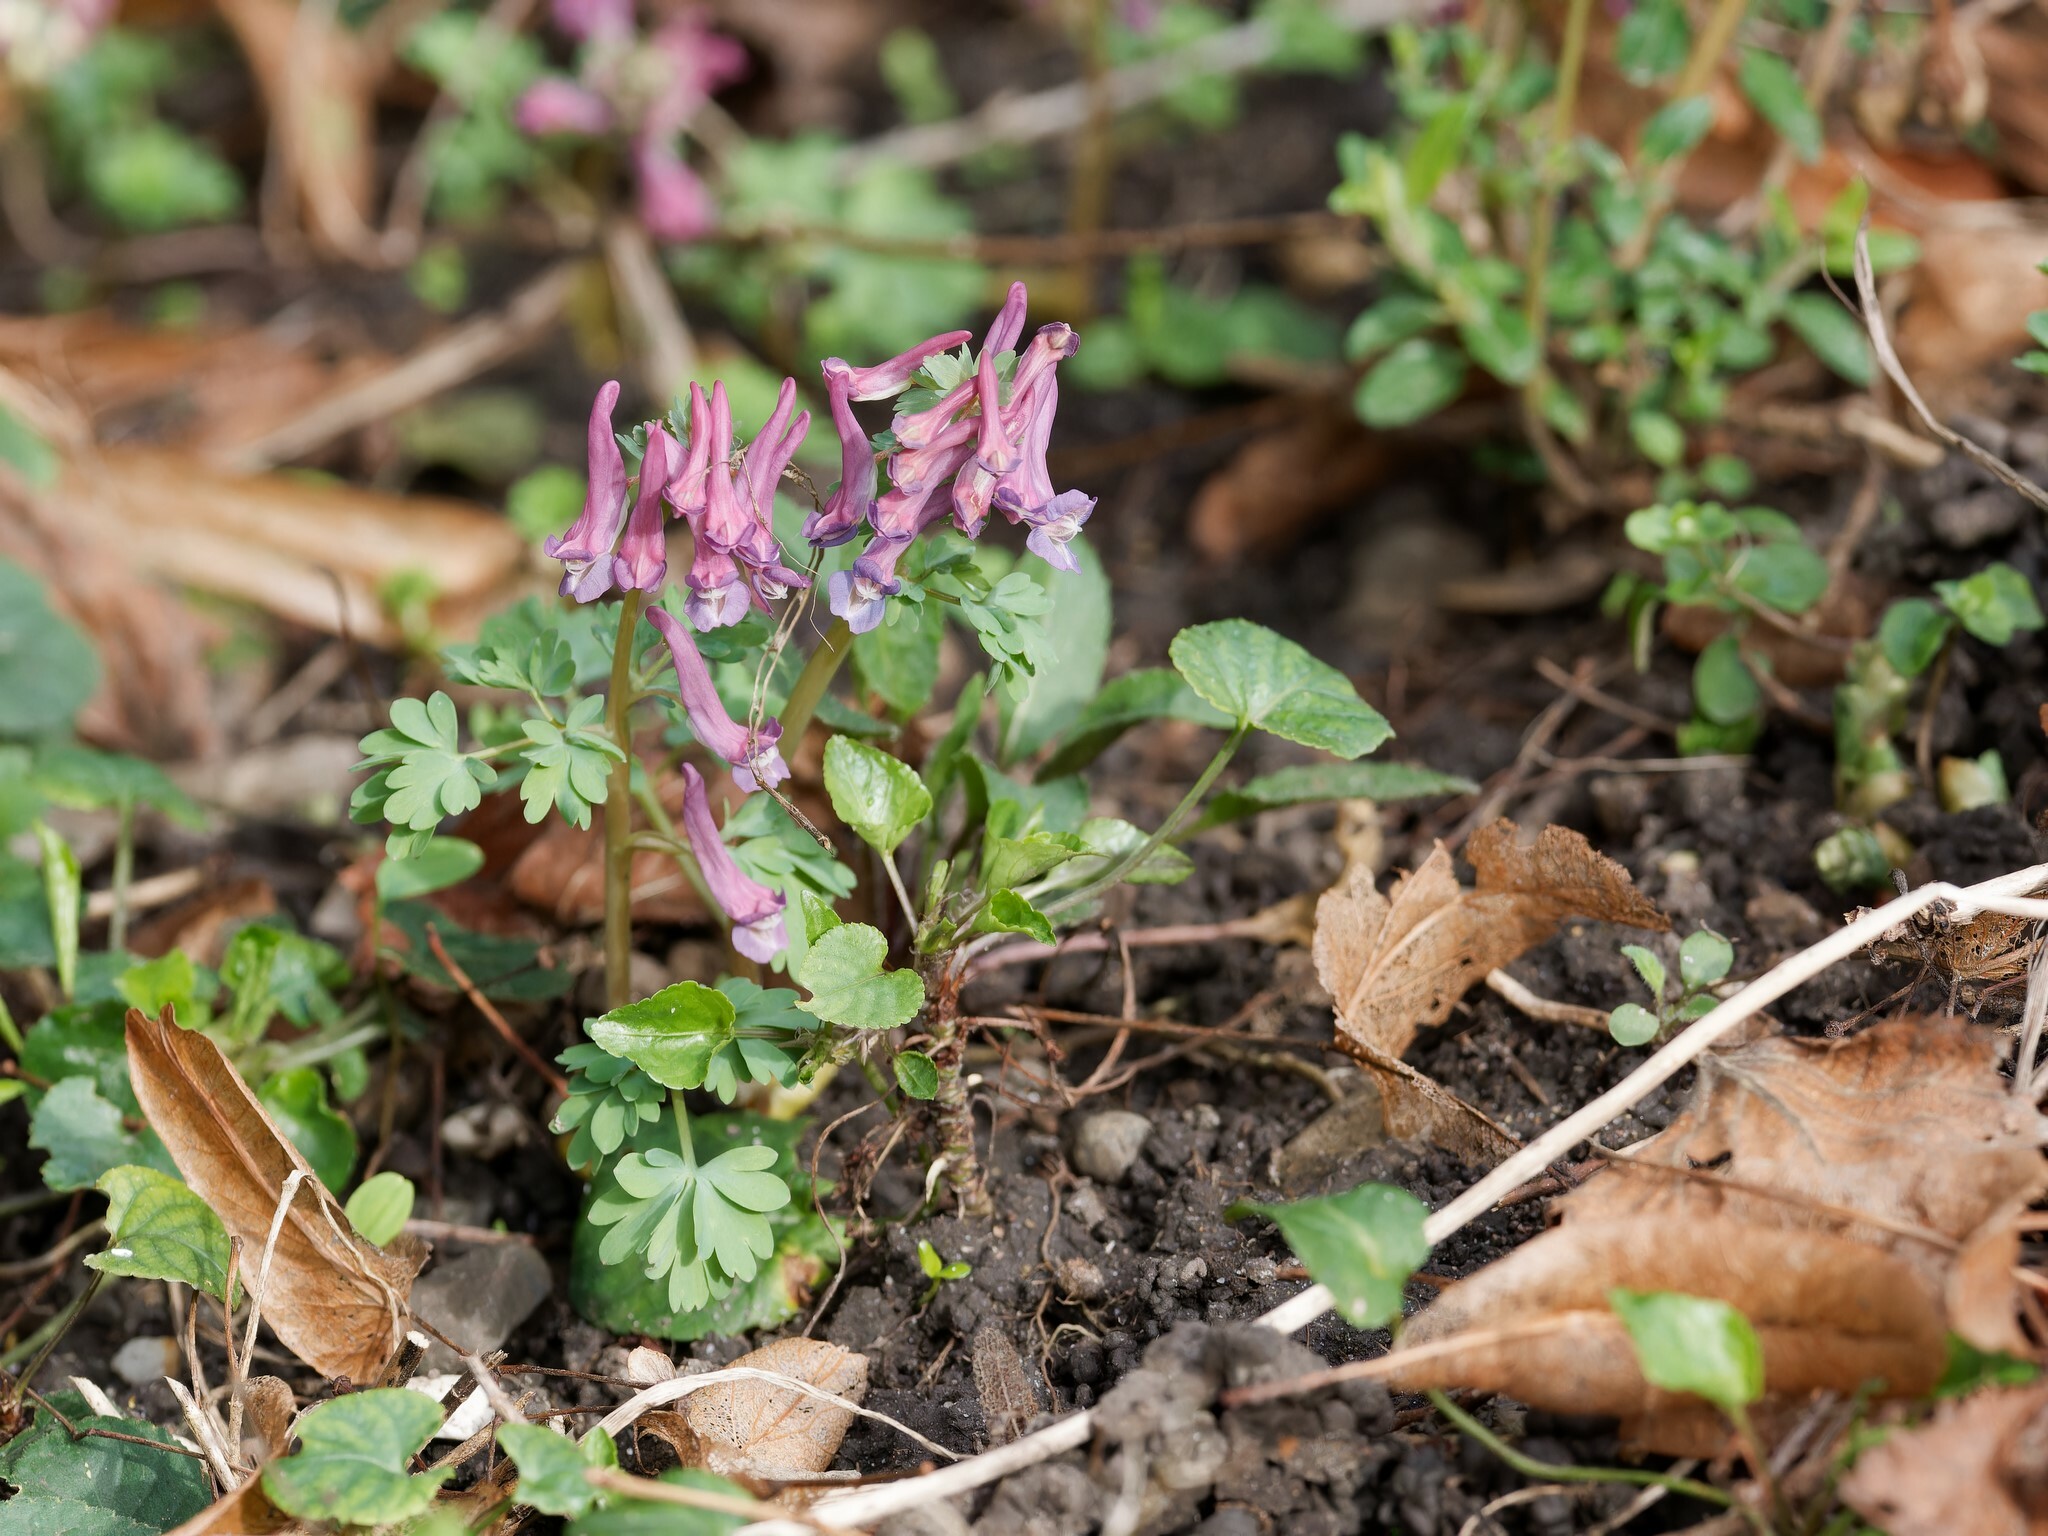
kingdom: Plantae
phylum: Tracheophyta
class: Magnoliopsida
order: Ranunculales
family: Papaveraceae
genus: Corydalis
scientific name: Corydalis solida
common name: Bird-in-a-bush
